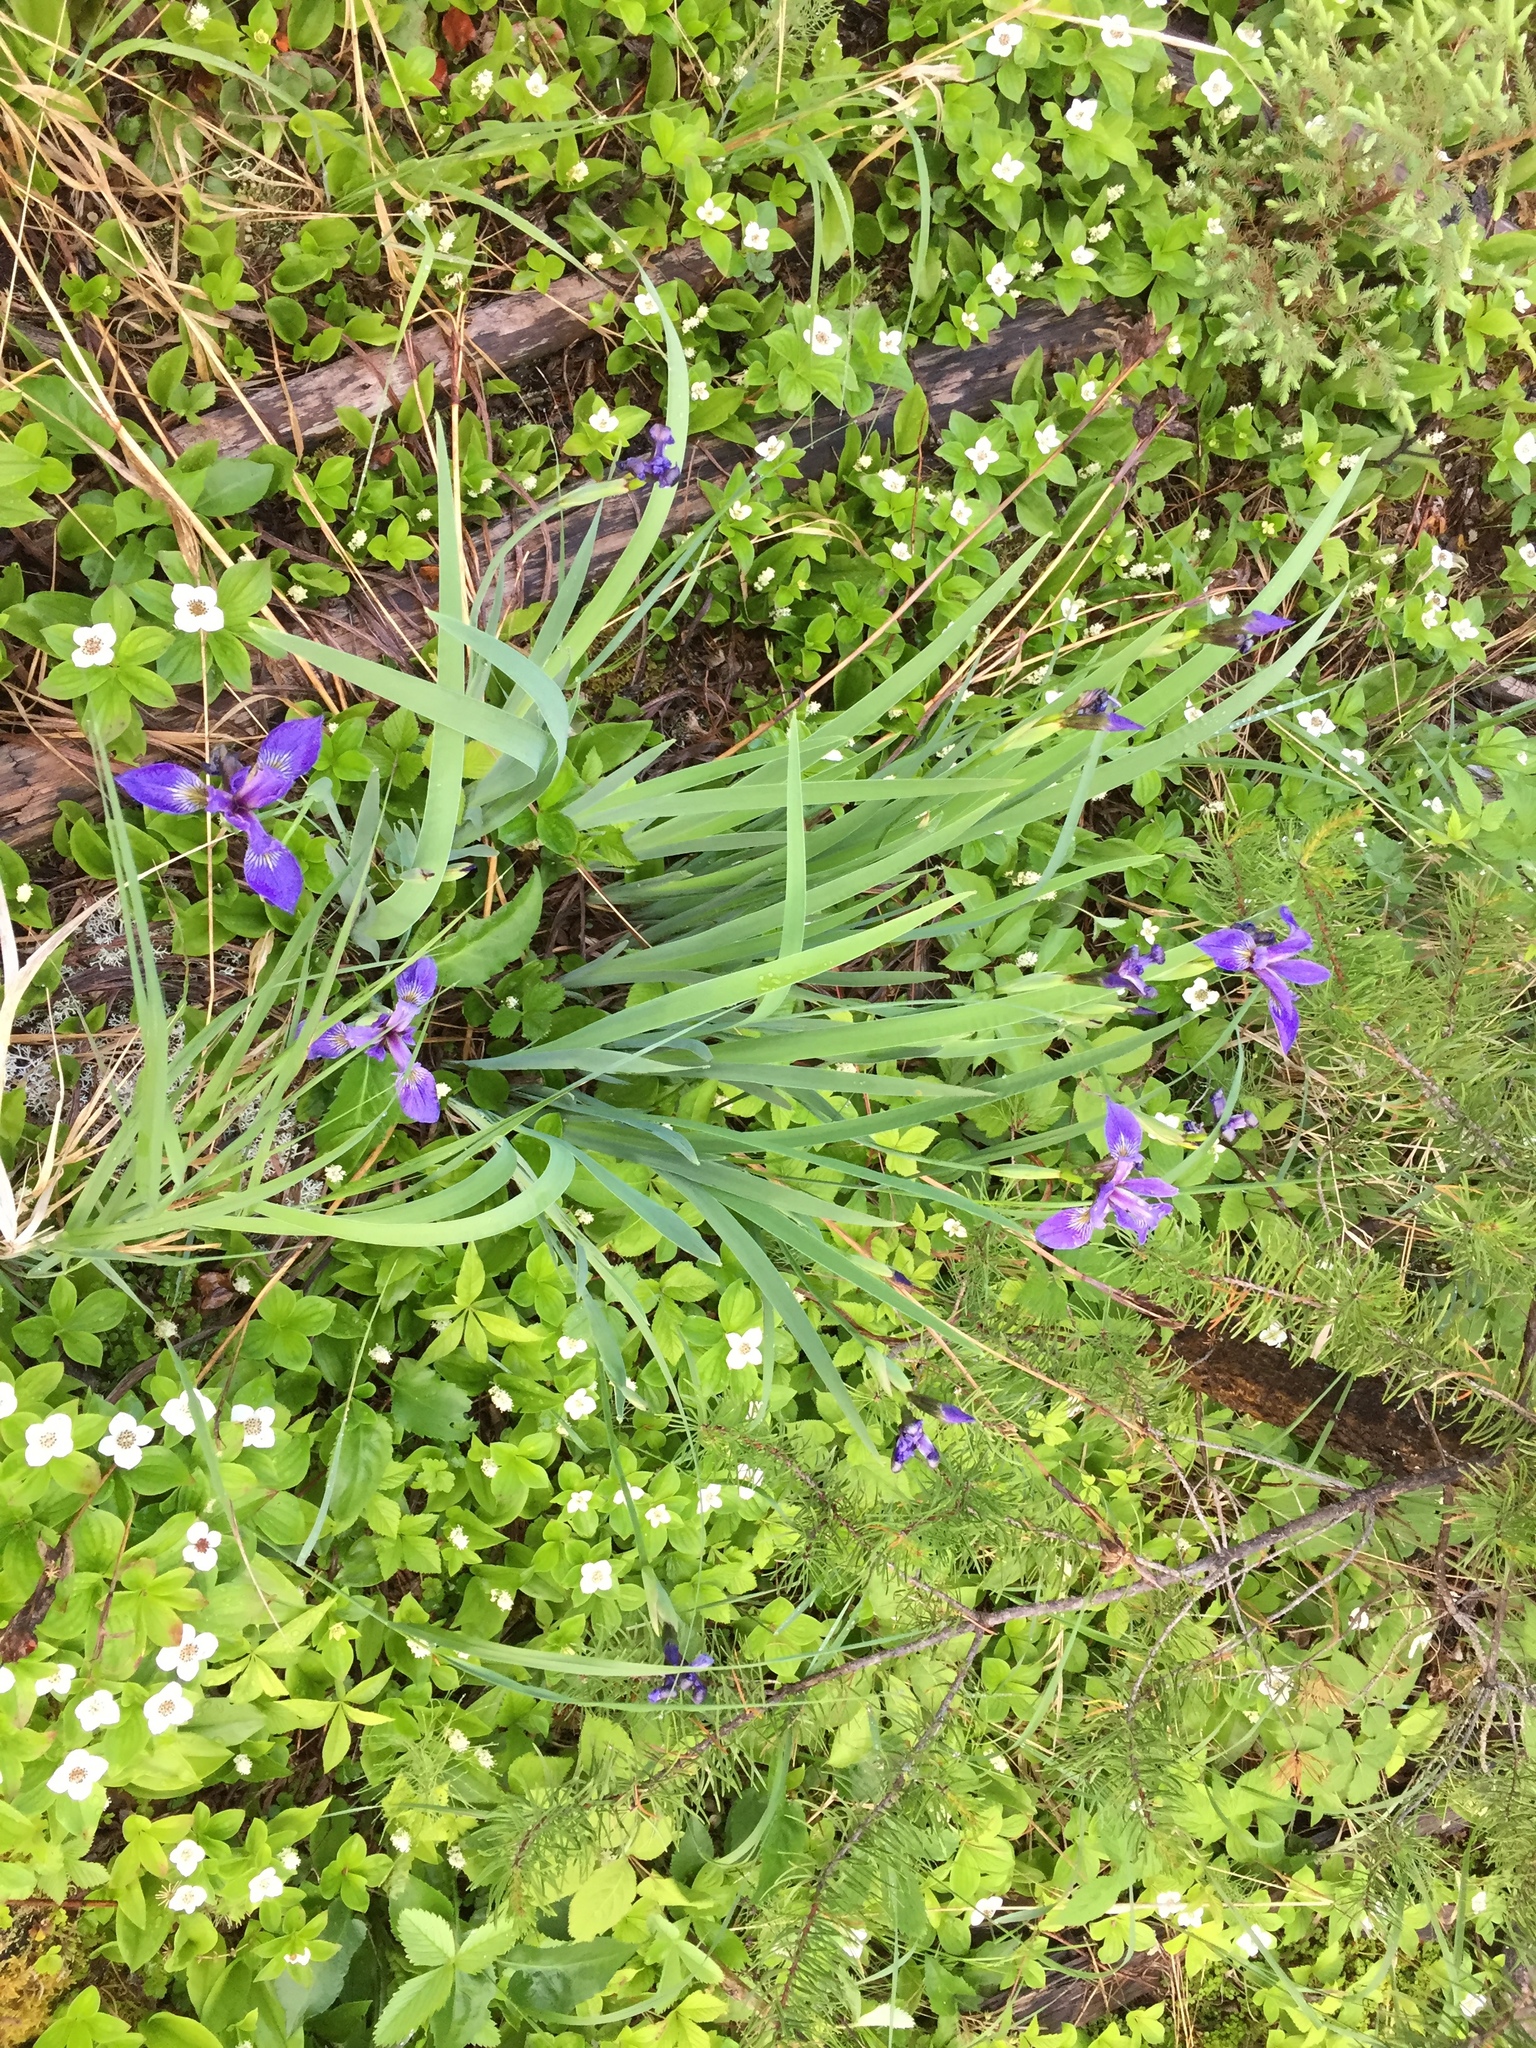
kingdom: Plantae
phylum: Tracheophyta
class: Liliopsida
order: Asparagales
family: Iridaceae
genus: Iris
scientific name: Iris versicolor
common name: Purple iris
